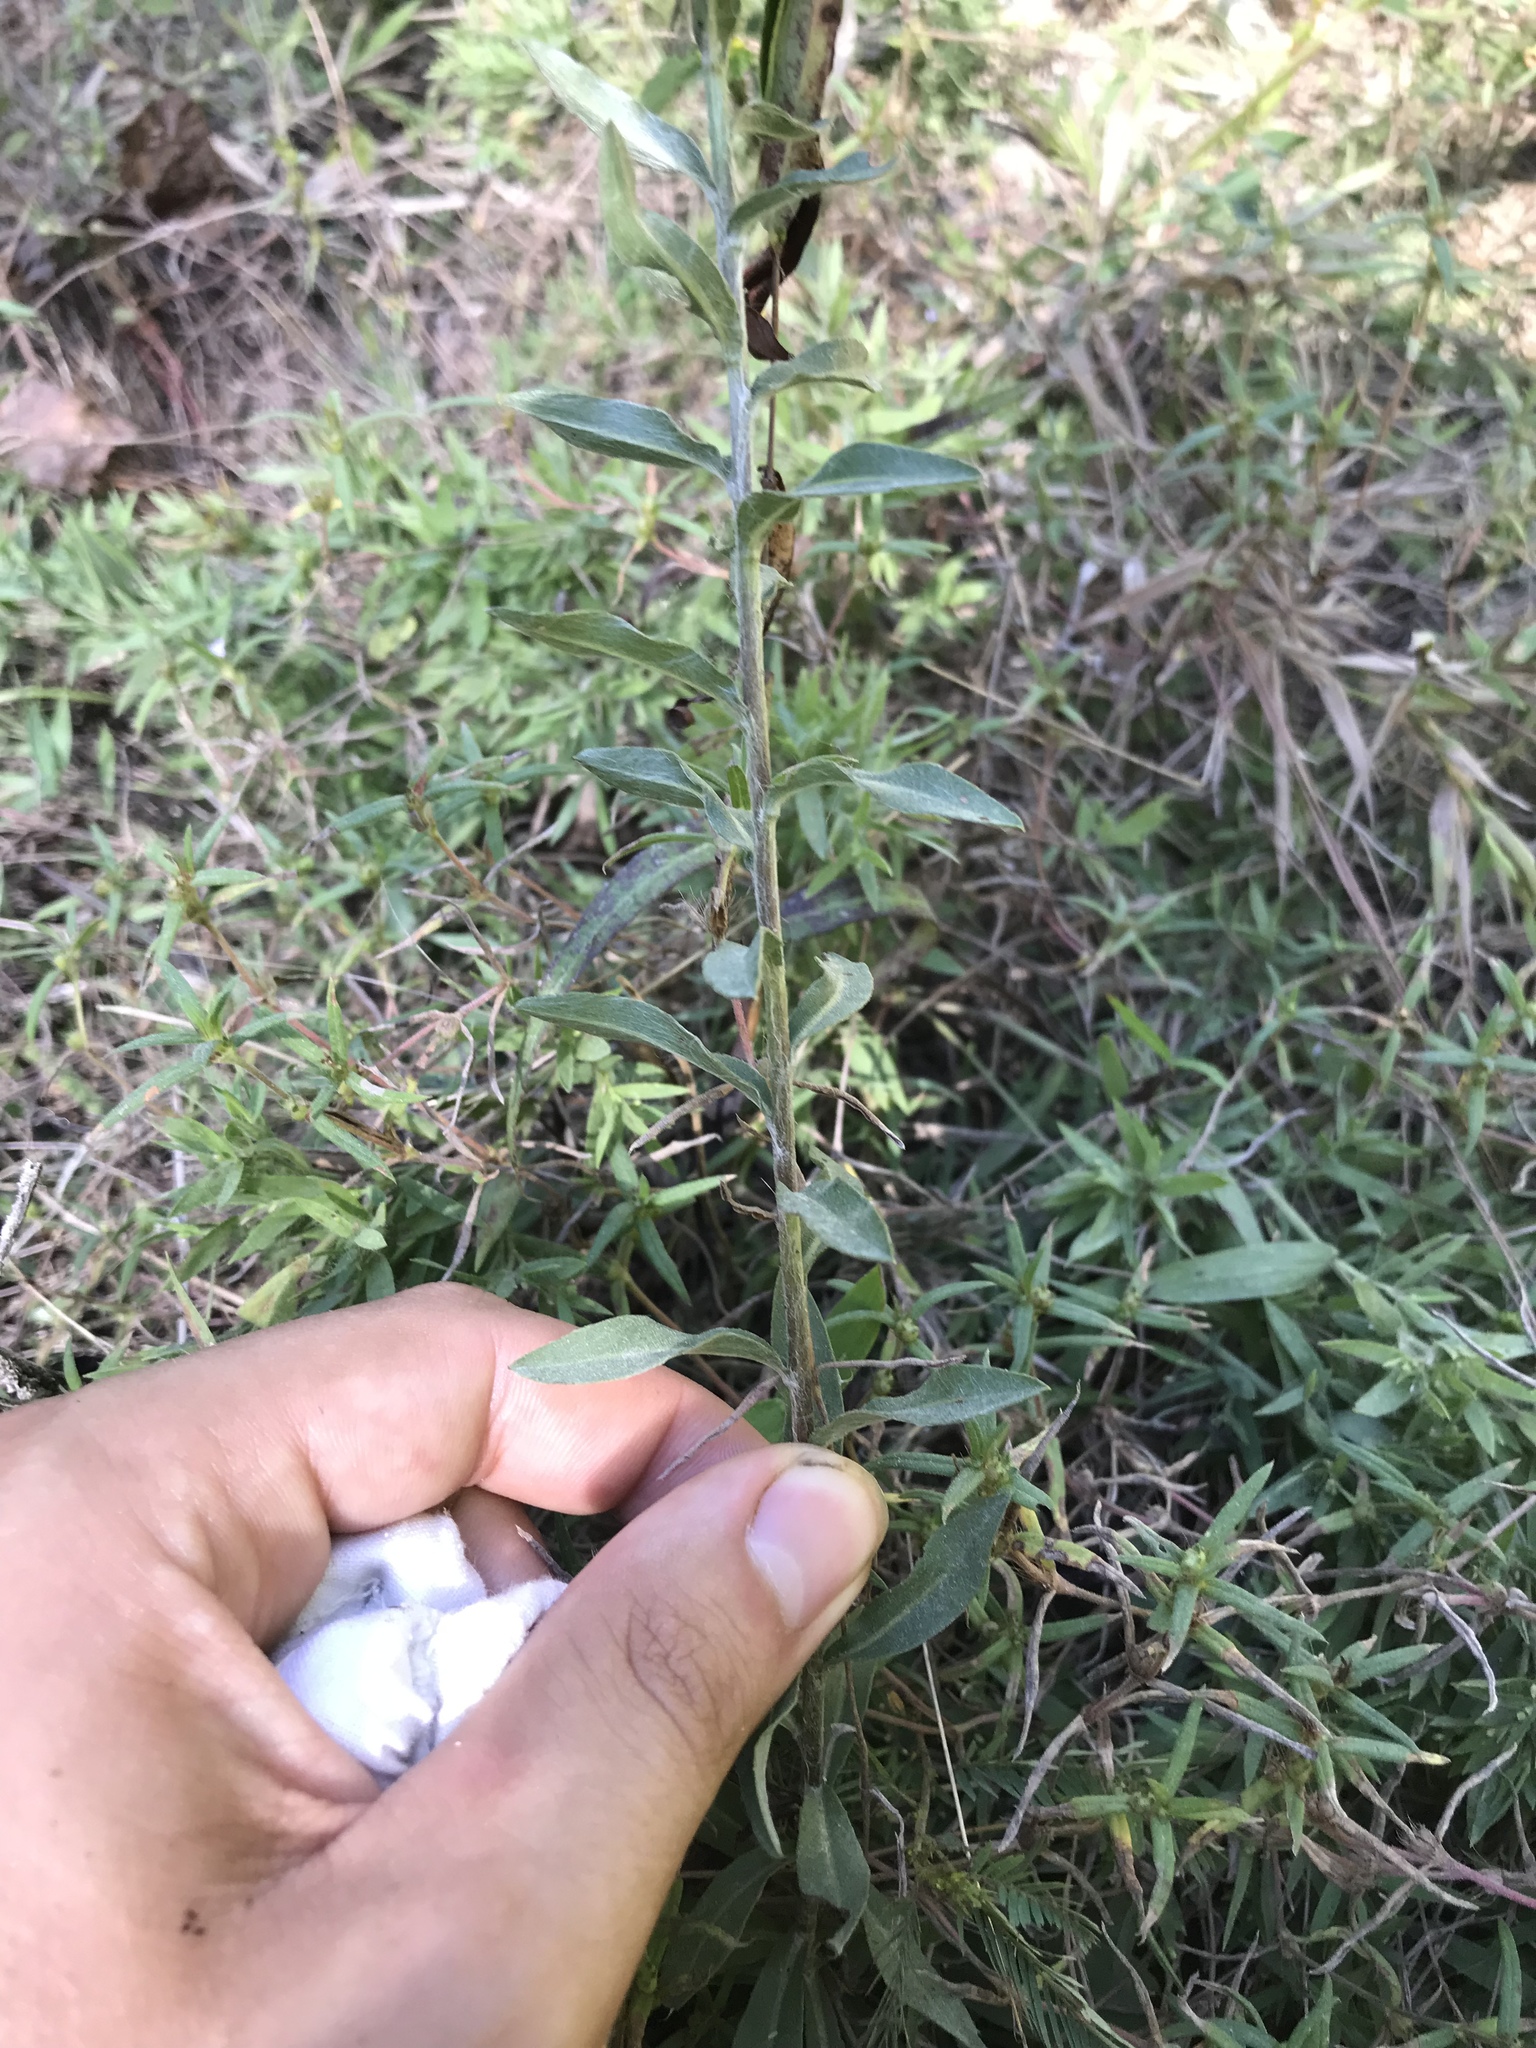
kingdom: Plantae
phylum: Tracheophyta
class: Magnoliopsida
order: Asterales
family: Asteraceae
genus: Chrysopsis
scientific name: Chrysopsis mariana
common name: Maryland golden-aster
